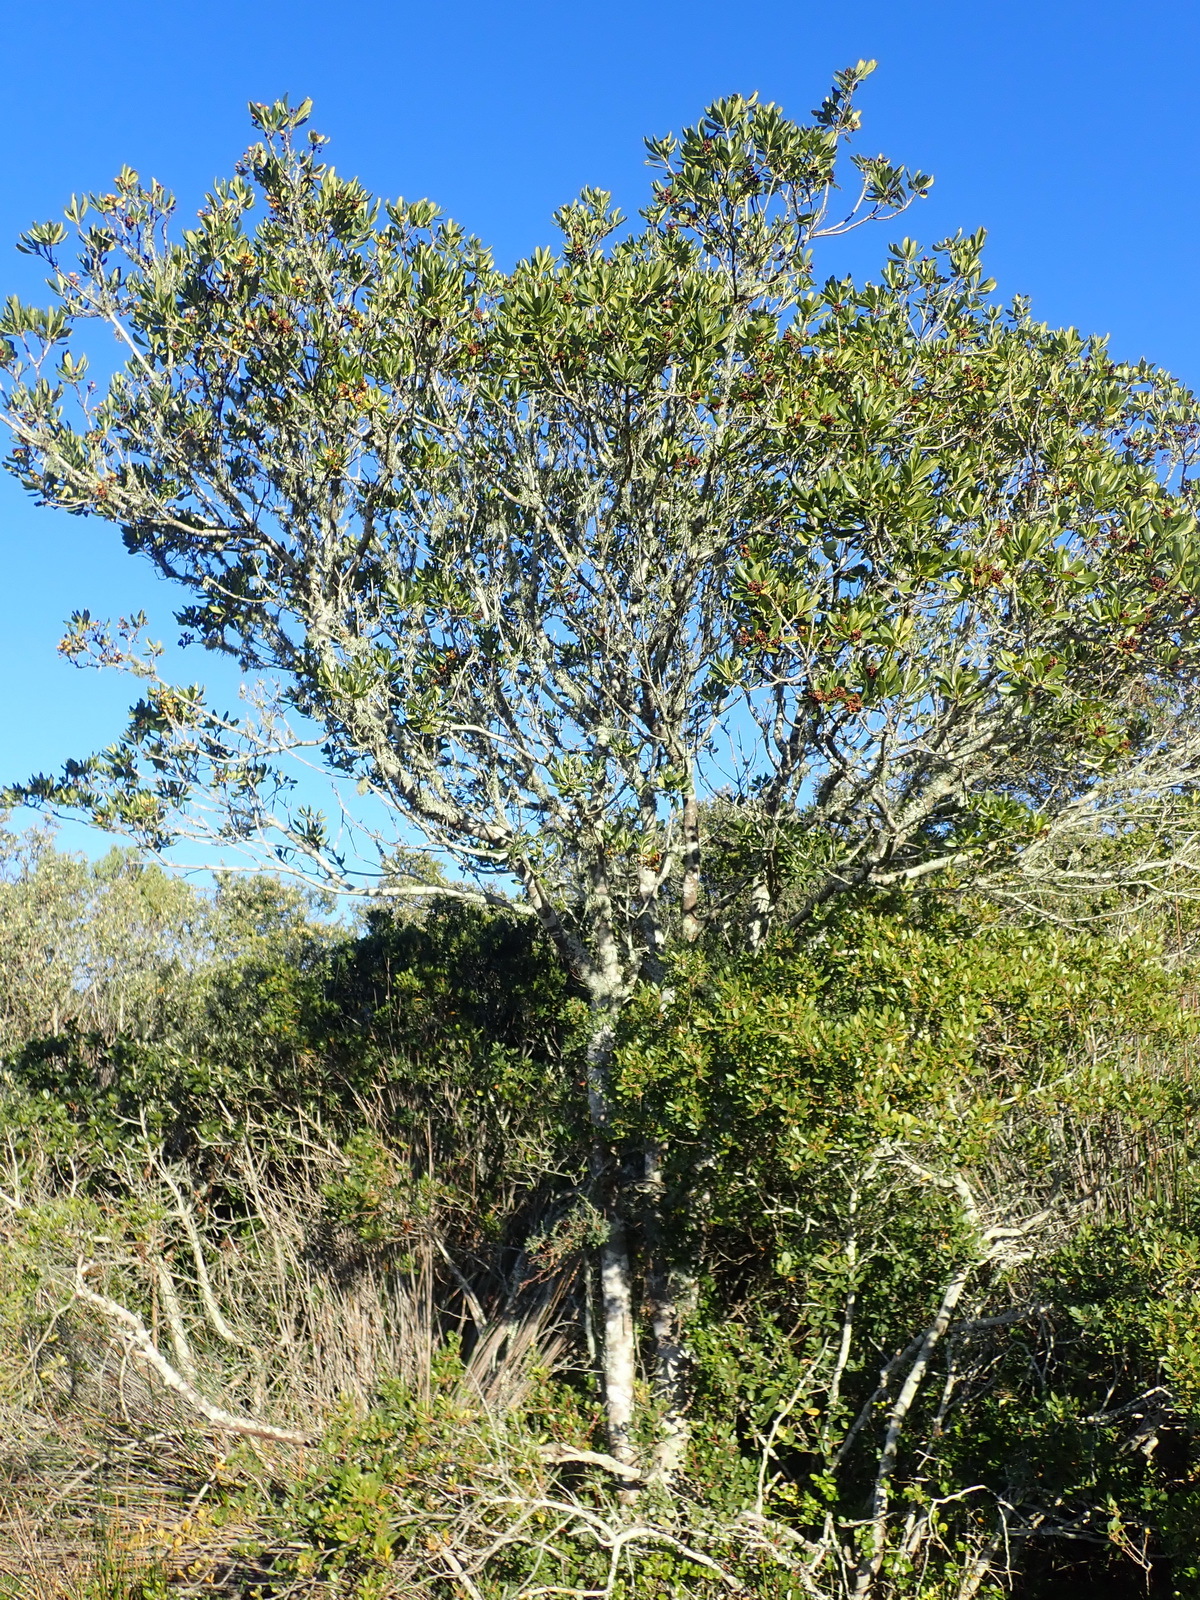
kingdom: Plantae
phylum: Tracheophyta
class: Magnoliopsida
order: Apiales
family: Pittosporaceae
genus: Pittosporum
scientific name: Pittosporum viridiflorum
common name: Cape cheesewood
